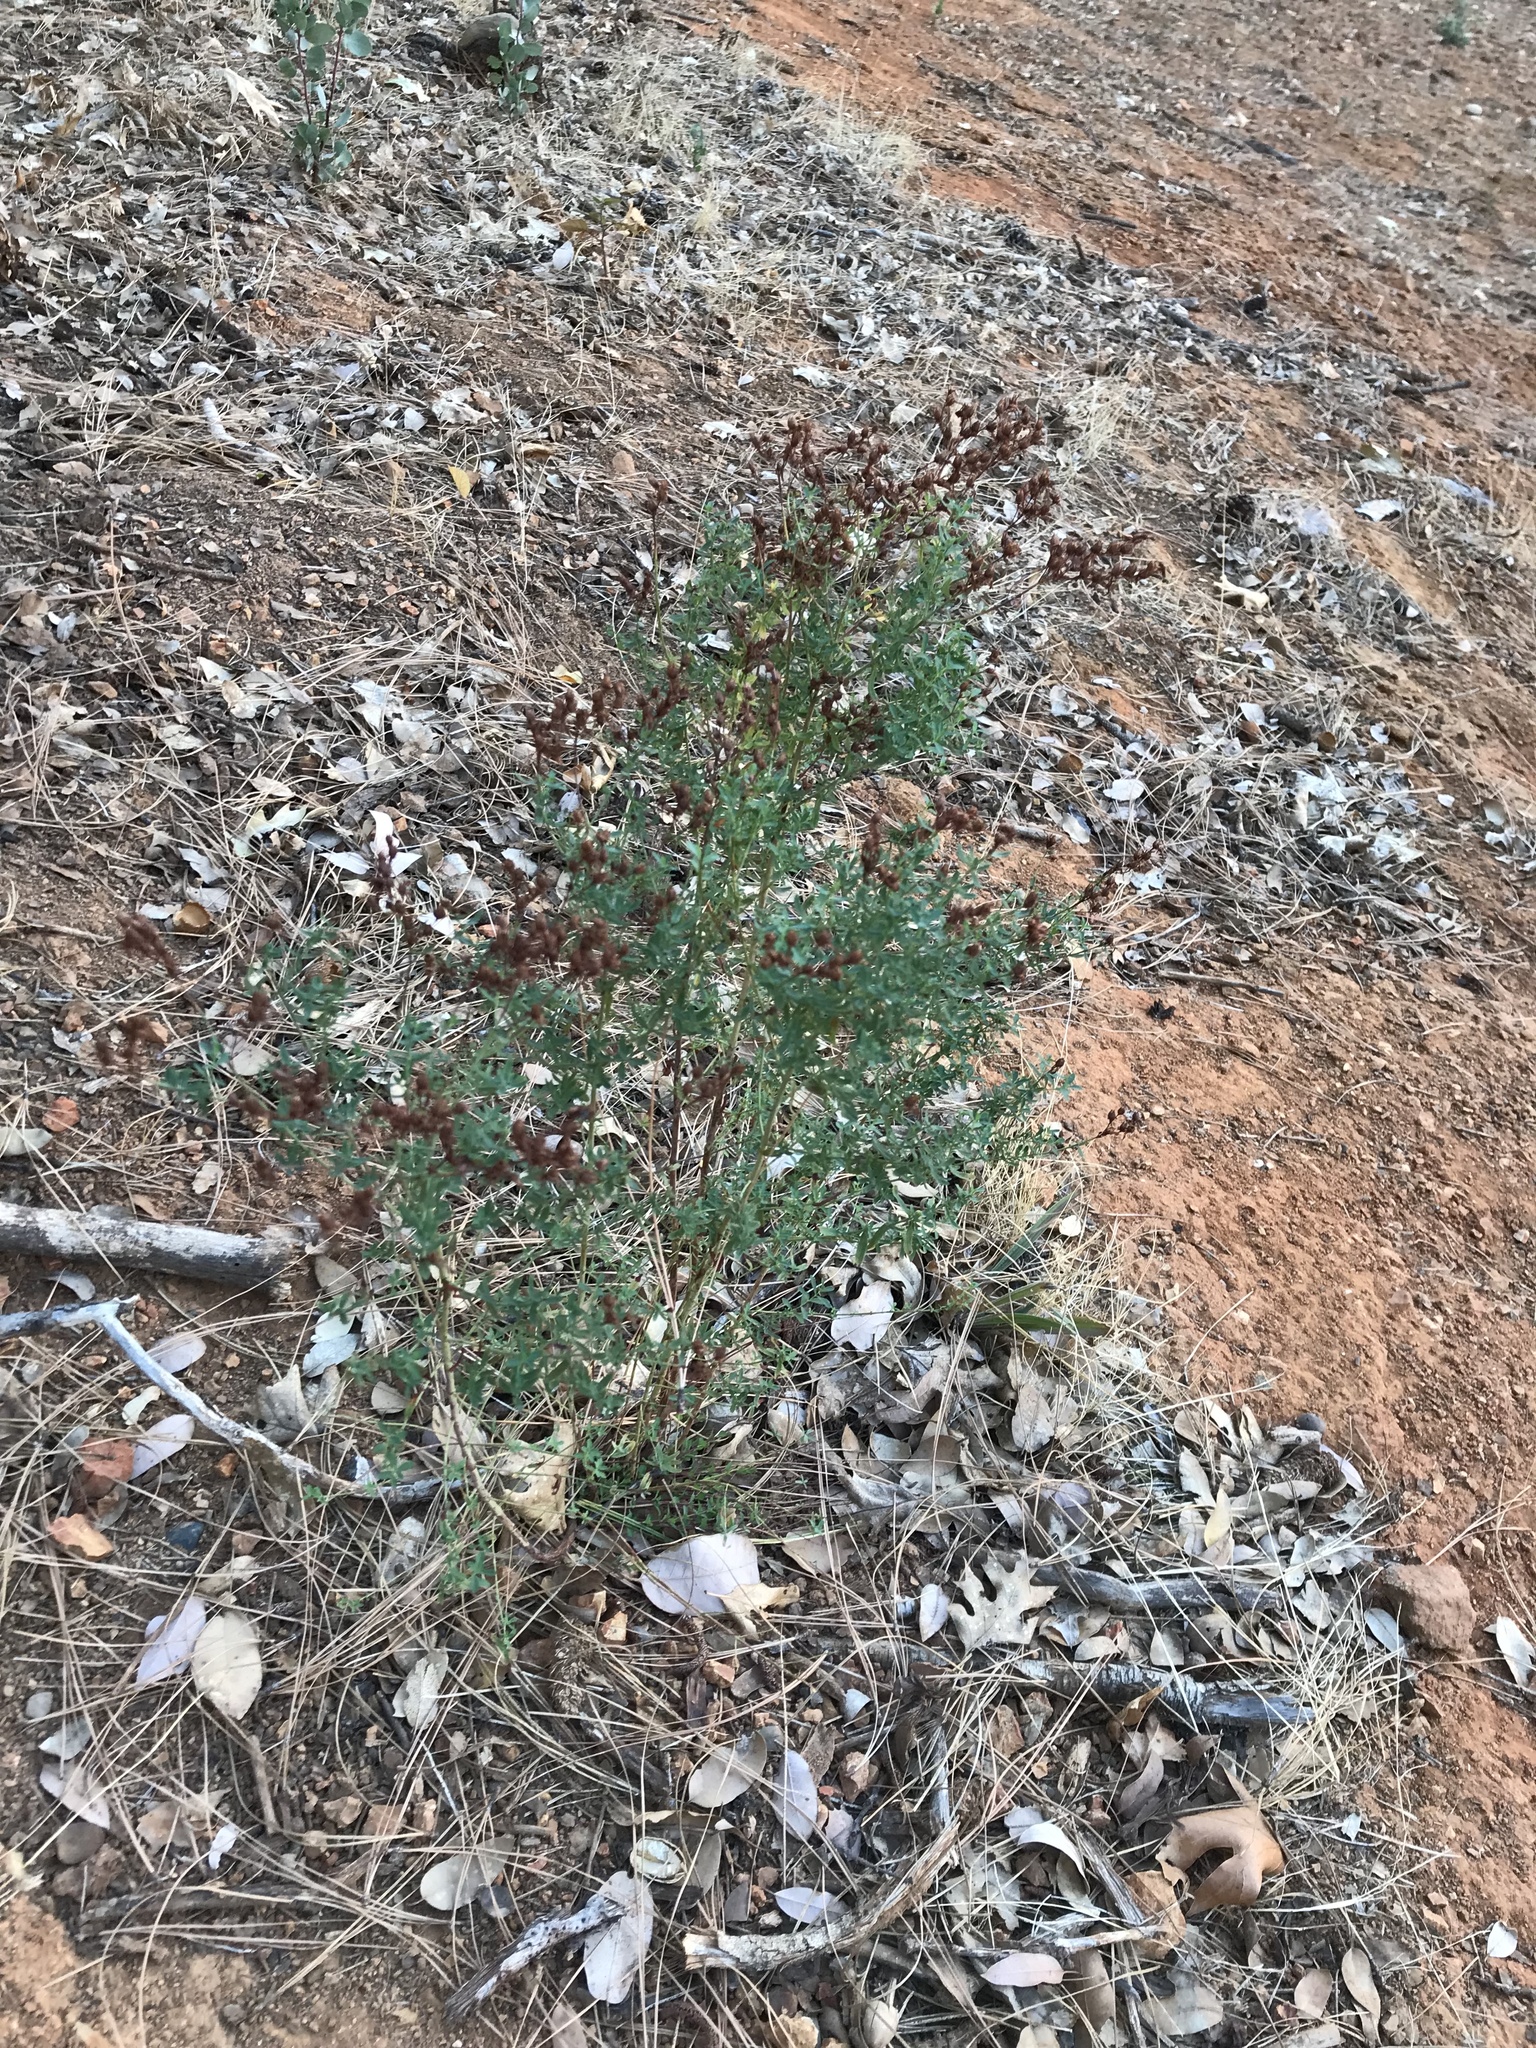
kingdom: Plantae
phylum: Tracheophyta
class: Magnoliopsida
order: Malpighiales
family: Hypericaceae
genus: Hypericum
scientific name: Hypericum perforatum
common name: Common st. johnswort
